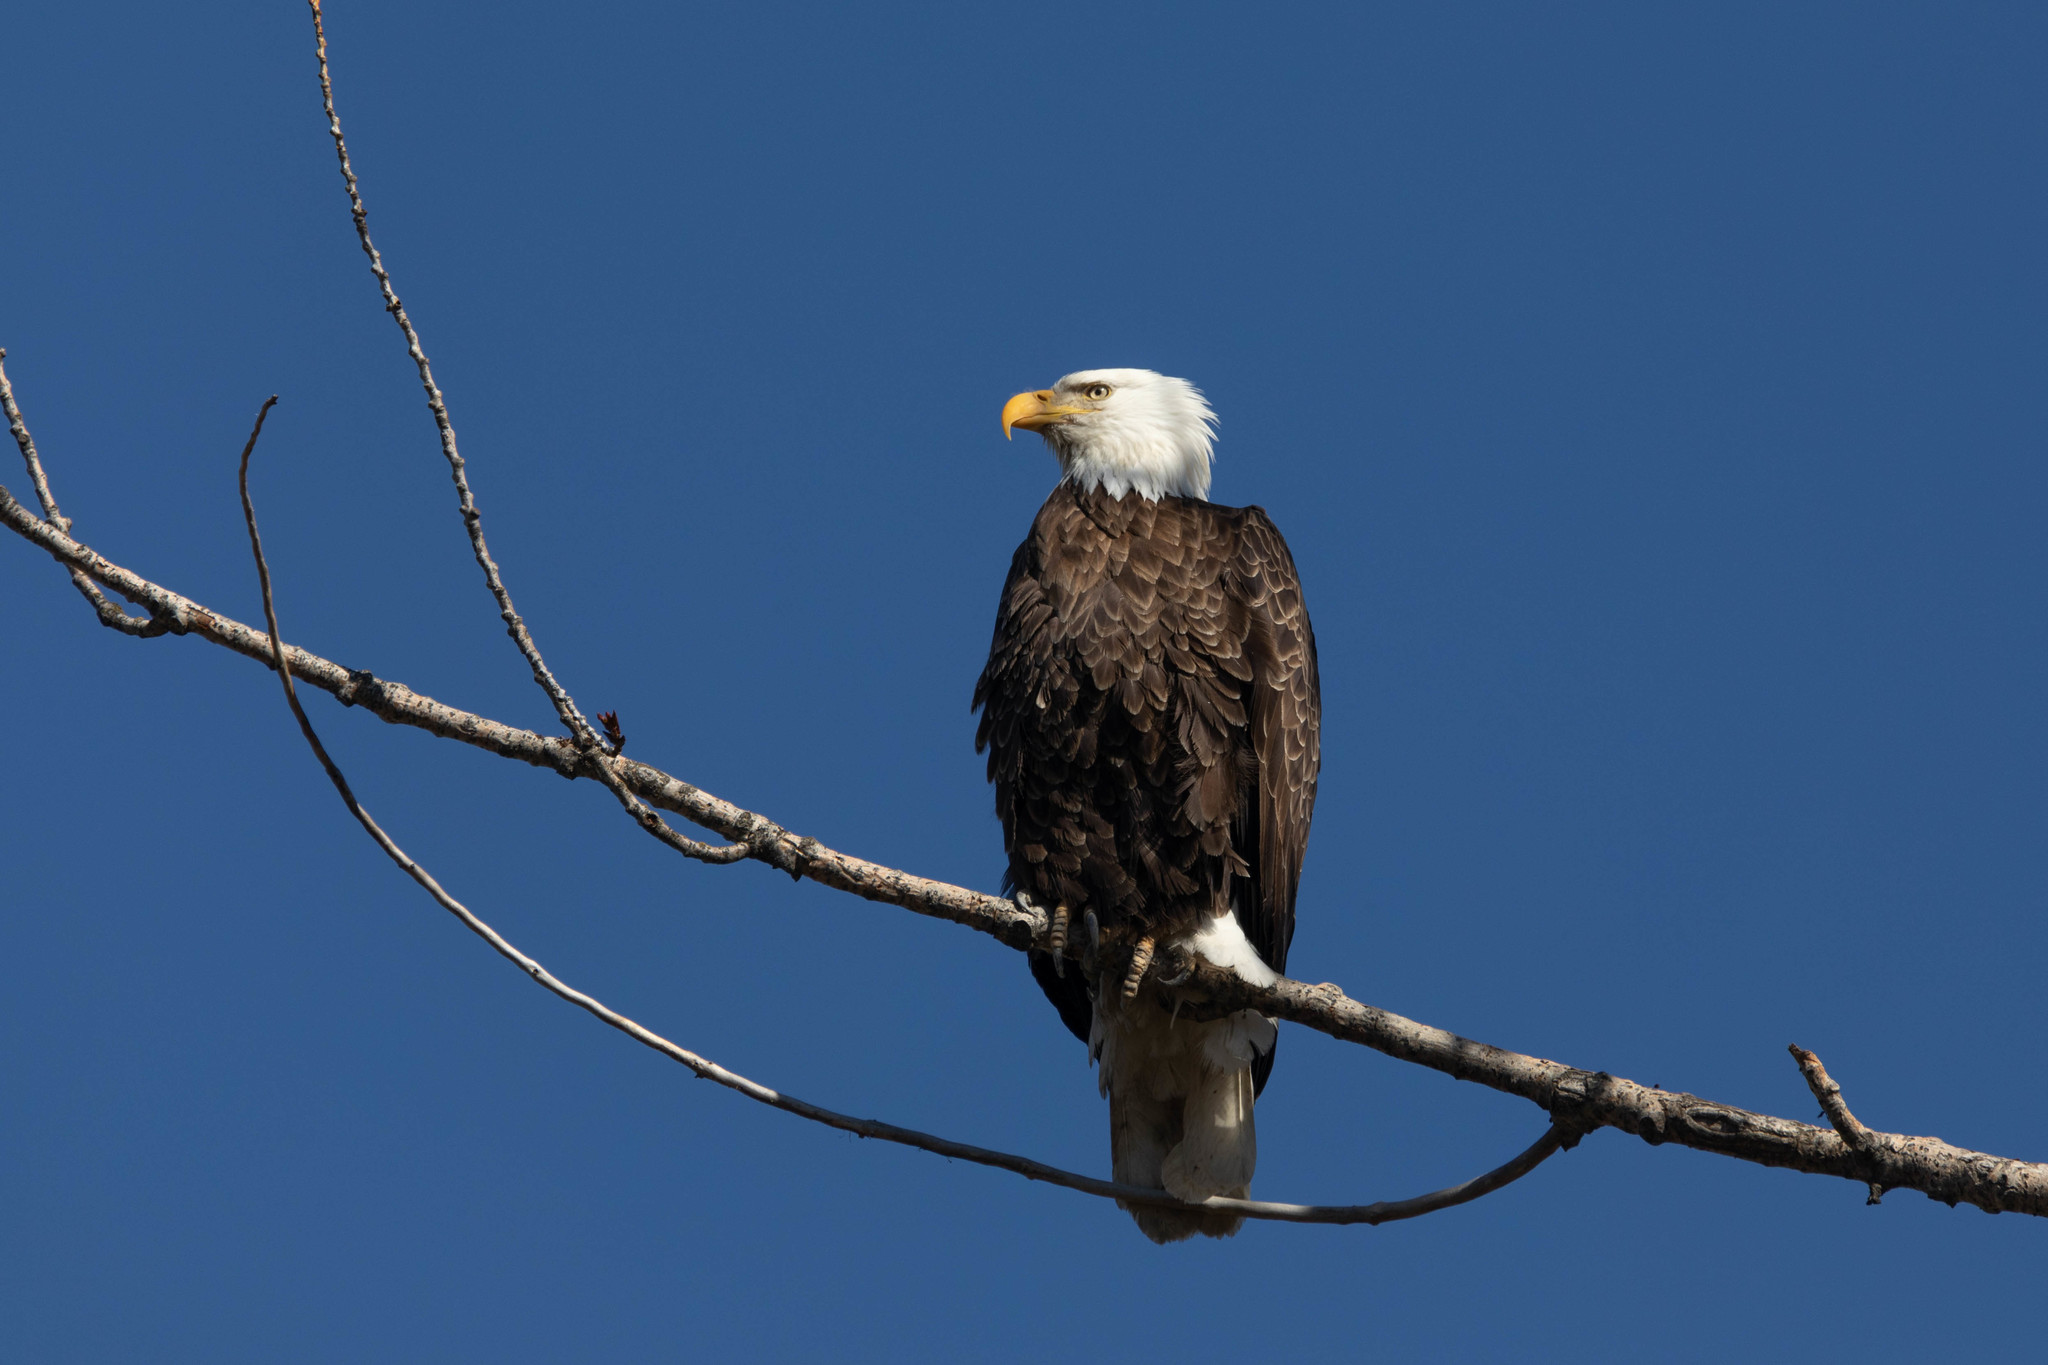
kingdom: Animalia
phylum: Chordata
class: Aves
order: Accipitriformes
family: Accipitridae
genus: Haliaeetus
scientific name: Haliaeetus leucocephalus
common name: Bald eagle
